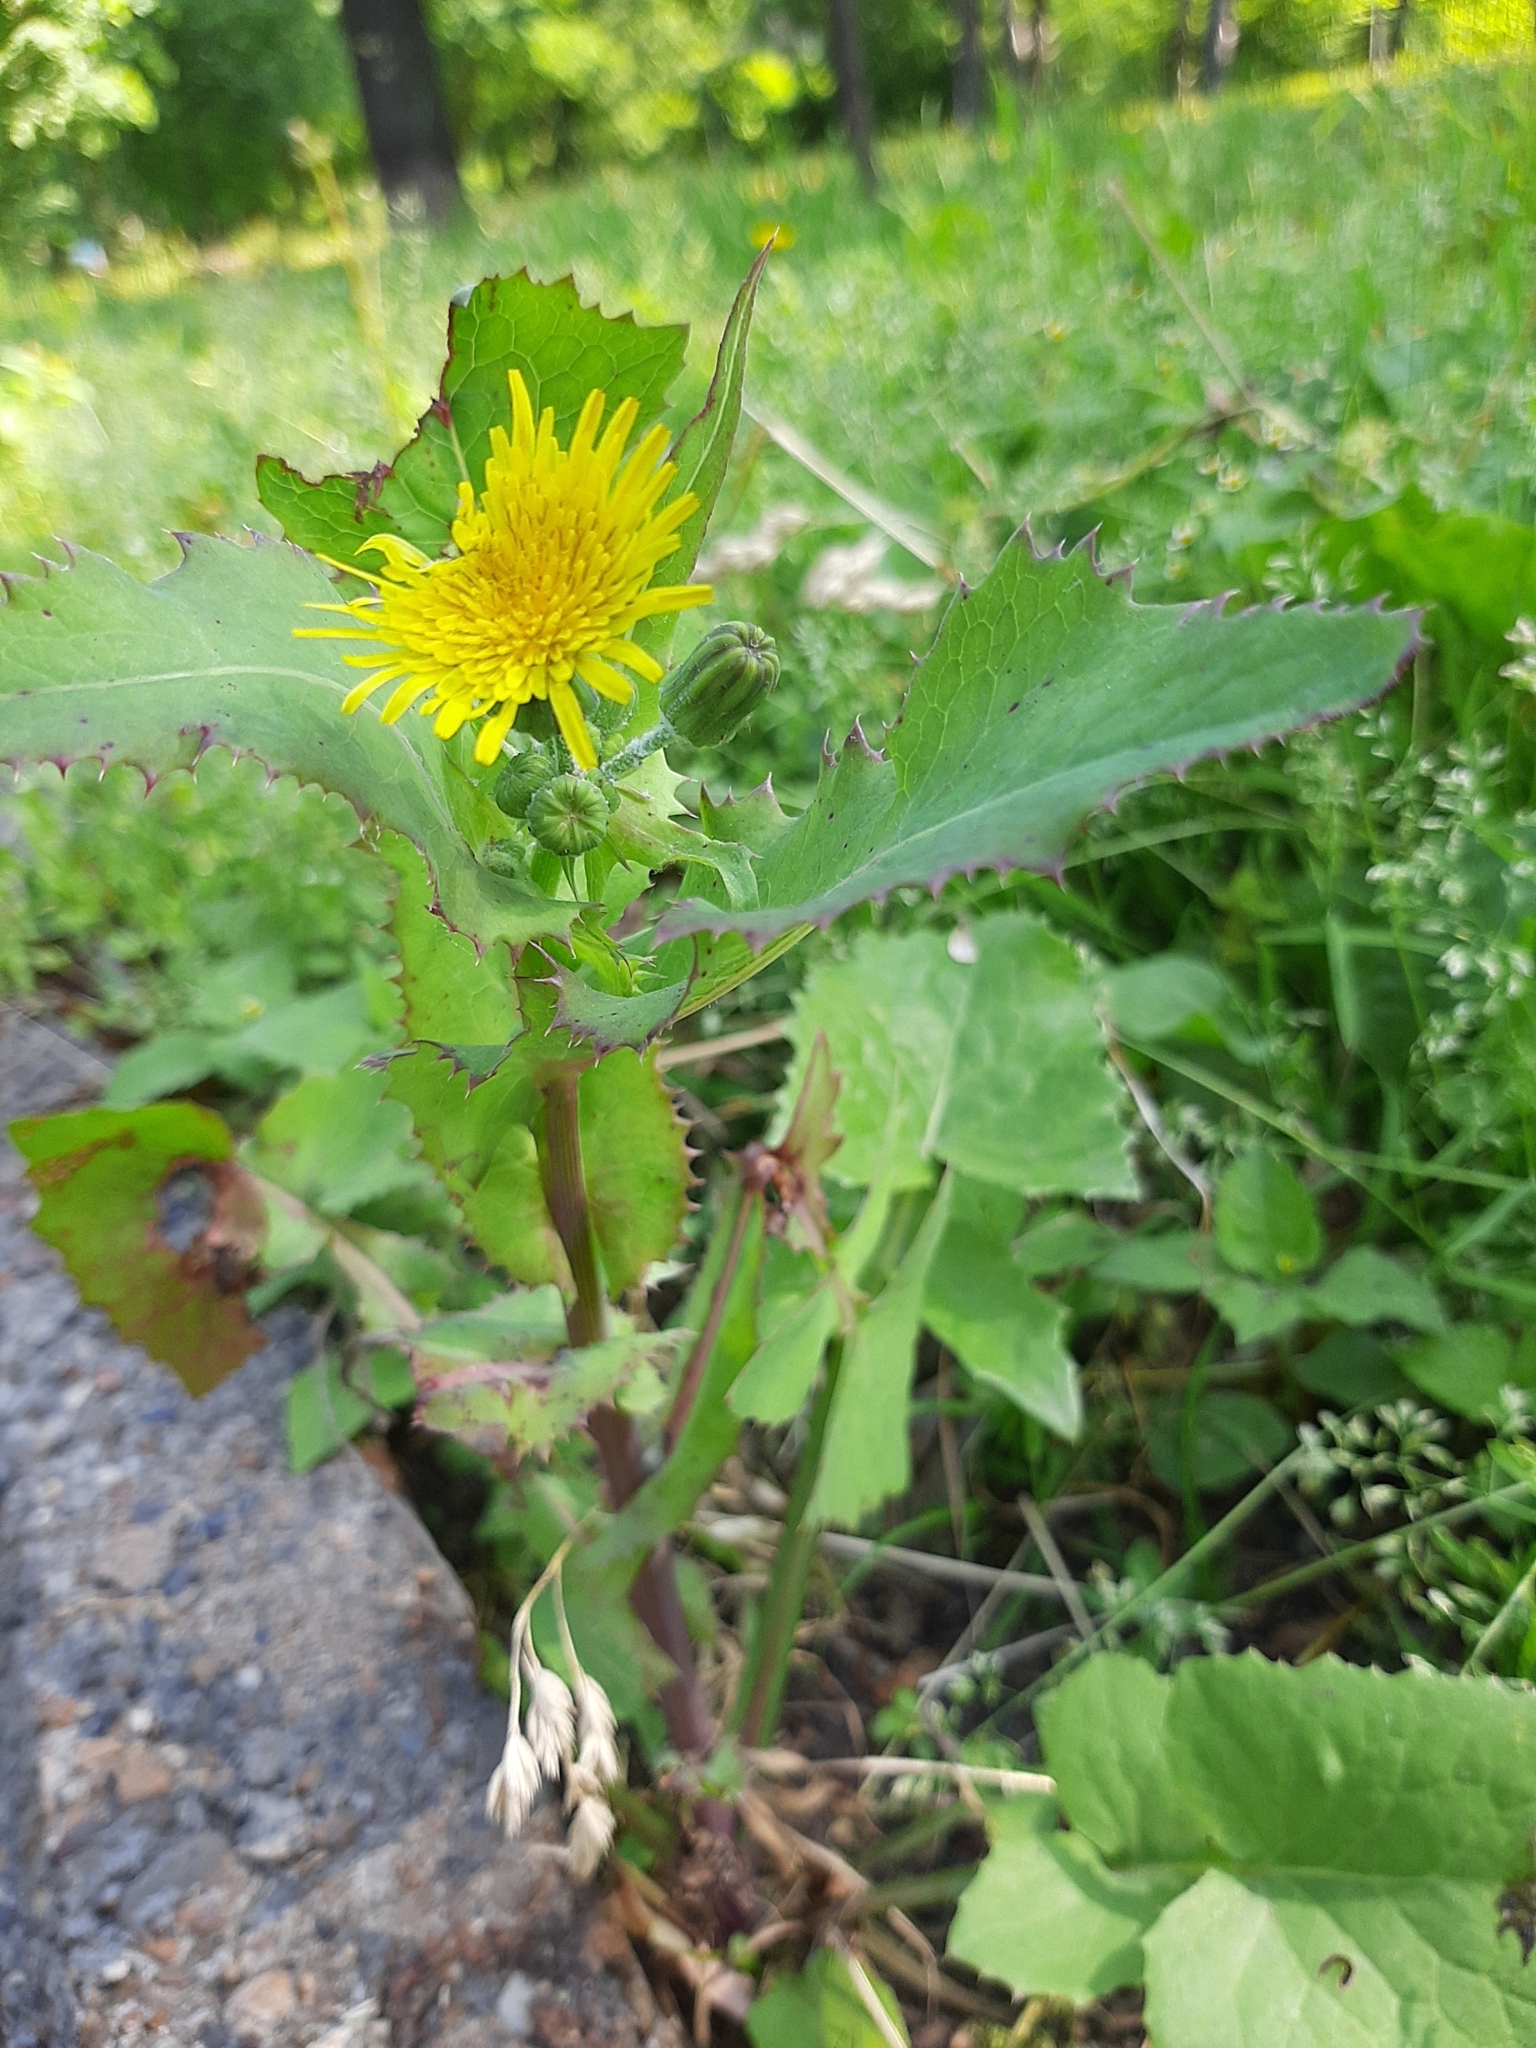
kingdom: Plantae
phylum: Tracheophyta
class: Magnoliopsida
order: Asterales
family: Asteraceae
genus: Sonchus
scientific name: Sonchus oleraceus
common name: Common sowthistle
